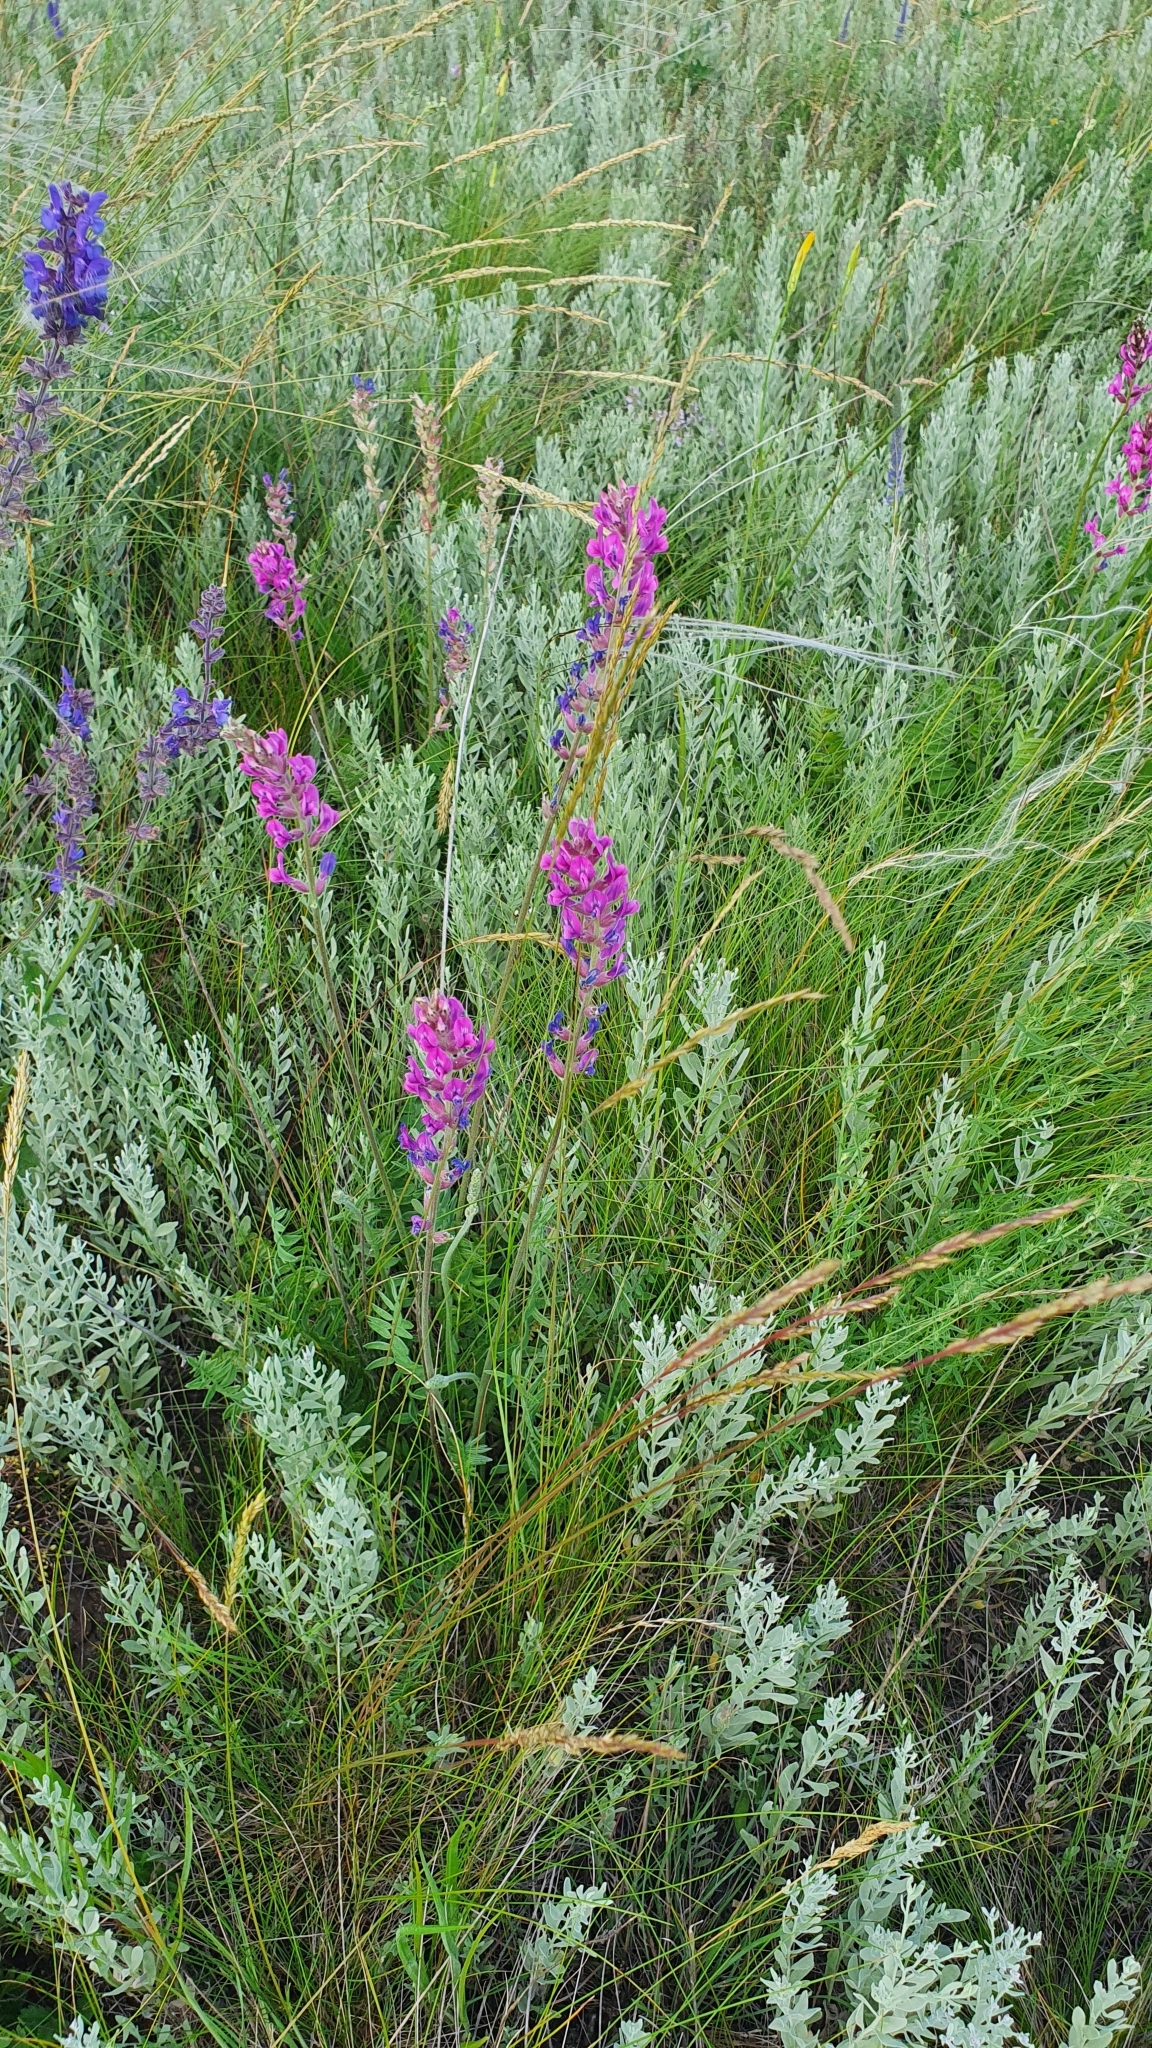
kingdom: Plantae
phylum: Tracheophyta
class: Magnoliopsida
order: Fabales
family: Fabaceae
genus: Oxytropis
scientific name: Oxytropis knjazevii
